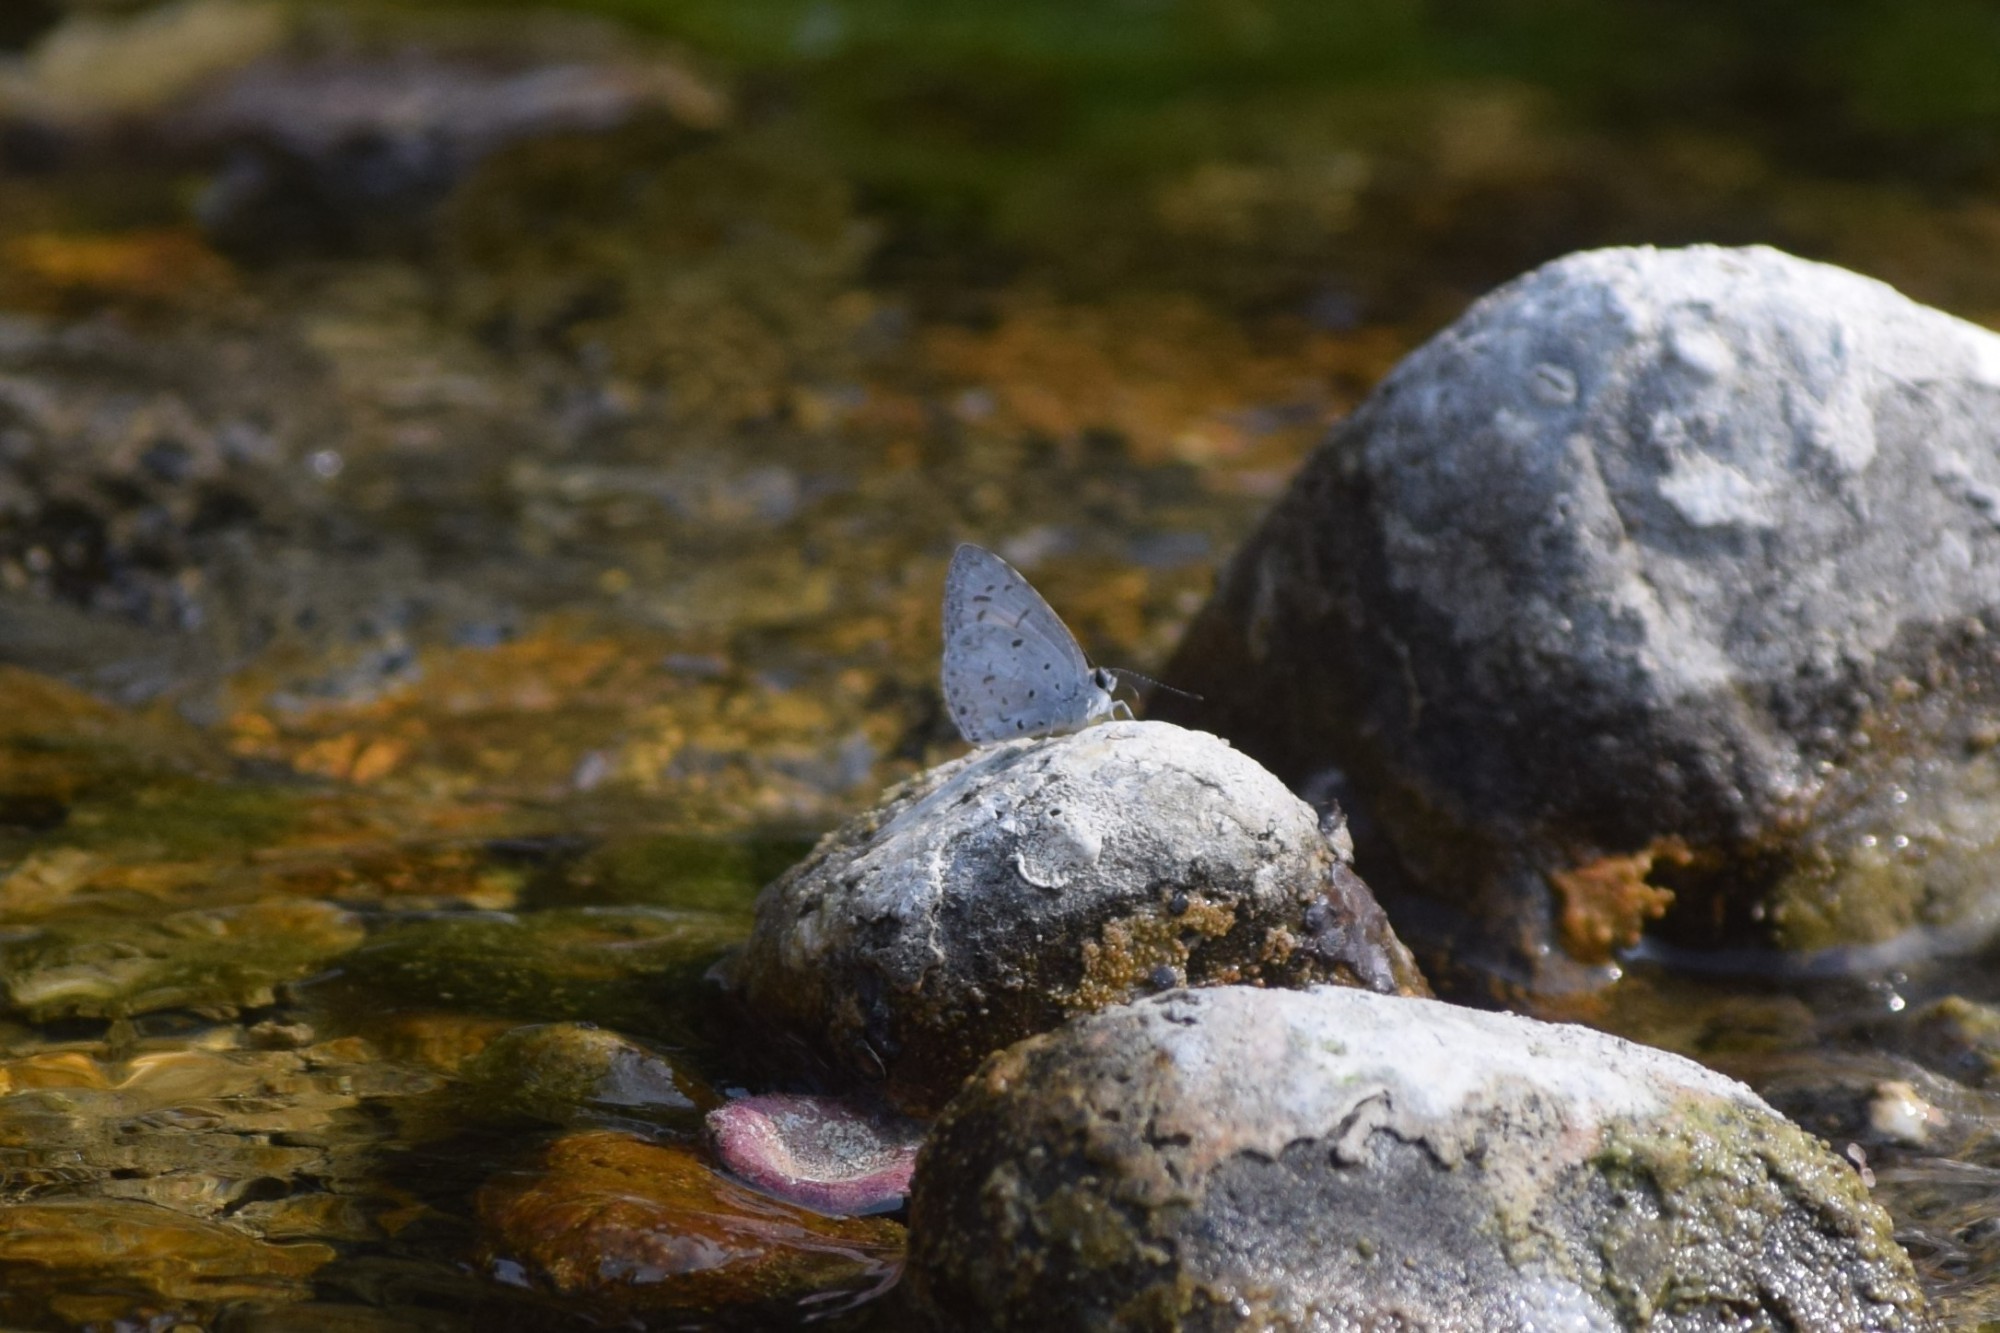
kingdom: Animalia
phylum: Arthropoda
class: Insecta
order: Lepidoptera
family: Lycaenidae
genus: Acytolepis
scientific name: Acytolepis puspa
